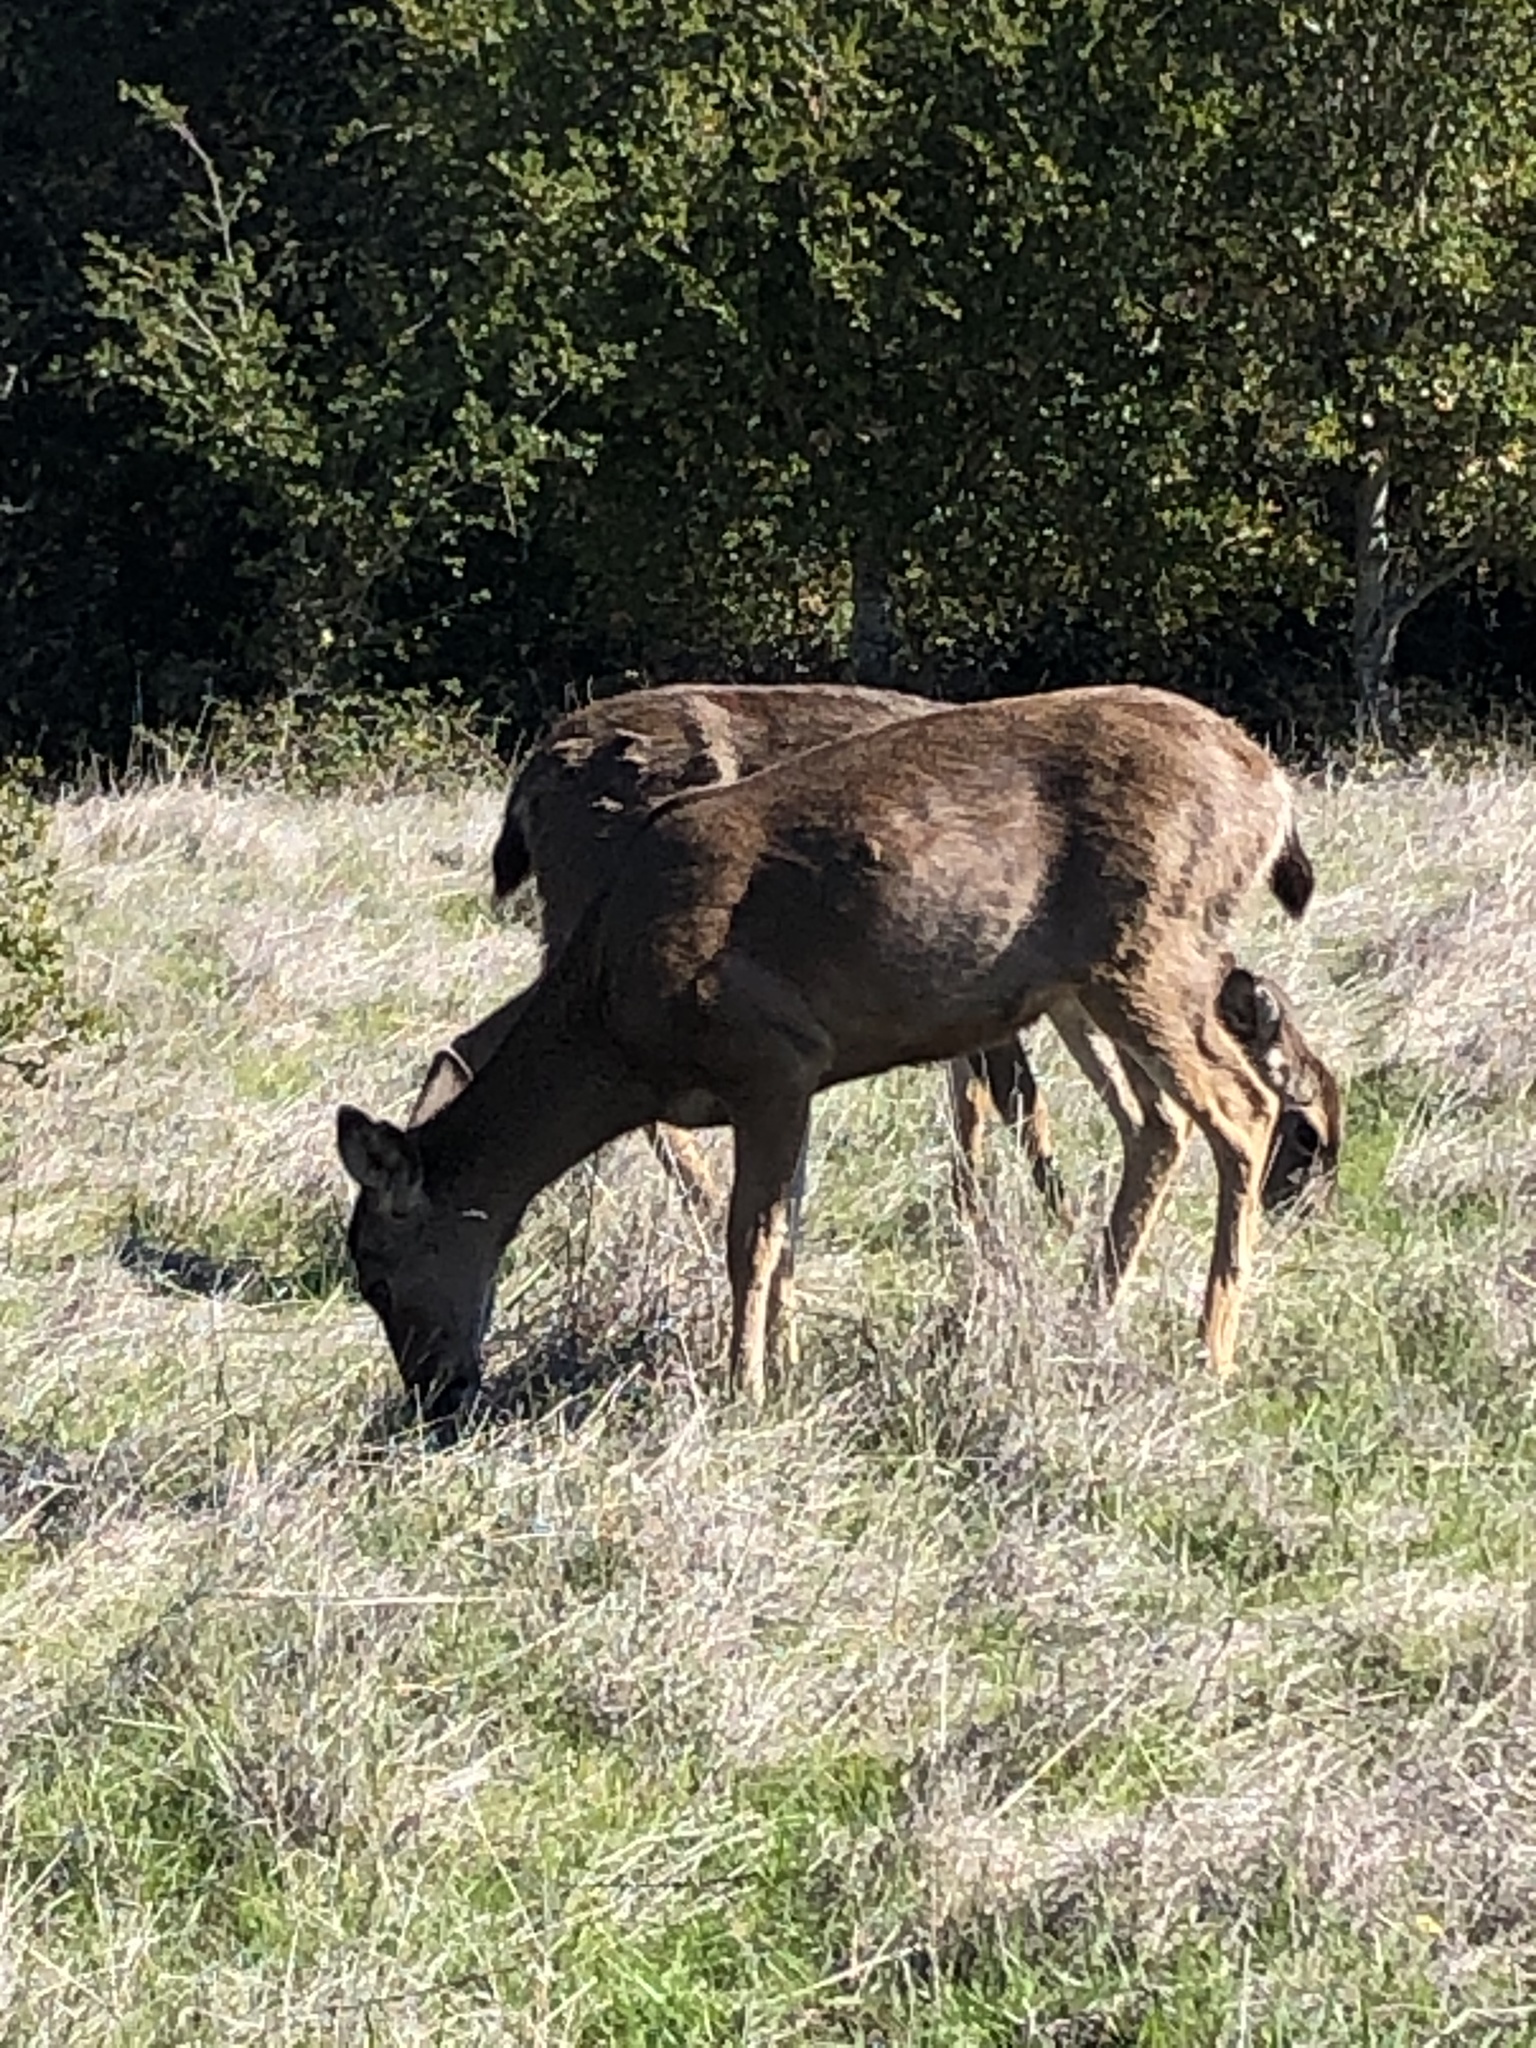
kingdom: Animalia
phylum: Chordata
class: Mammalia
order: Artiodactyla
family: Cervidae
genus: Odocoileus
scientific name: Odocoileus hemionus
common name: Mule deer
